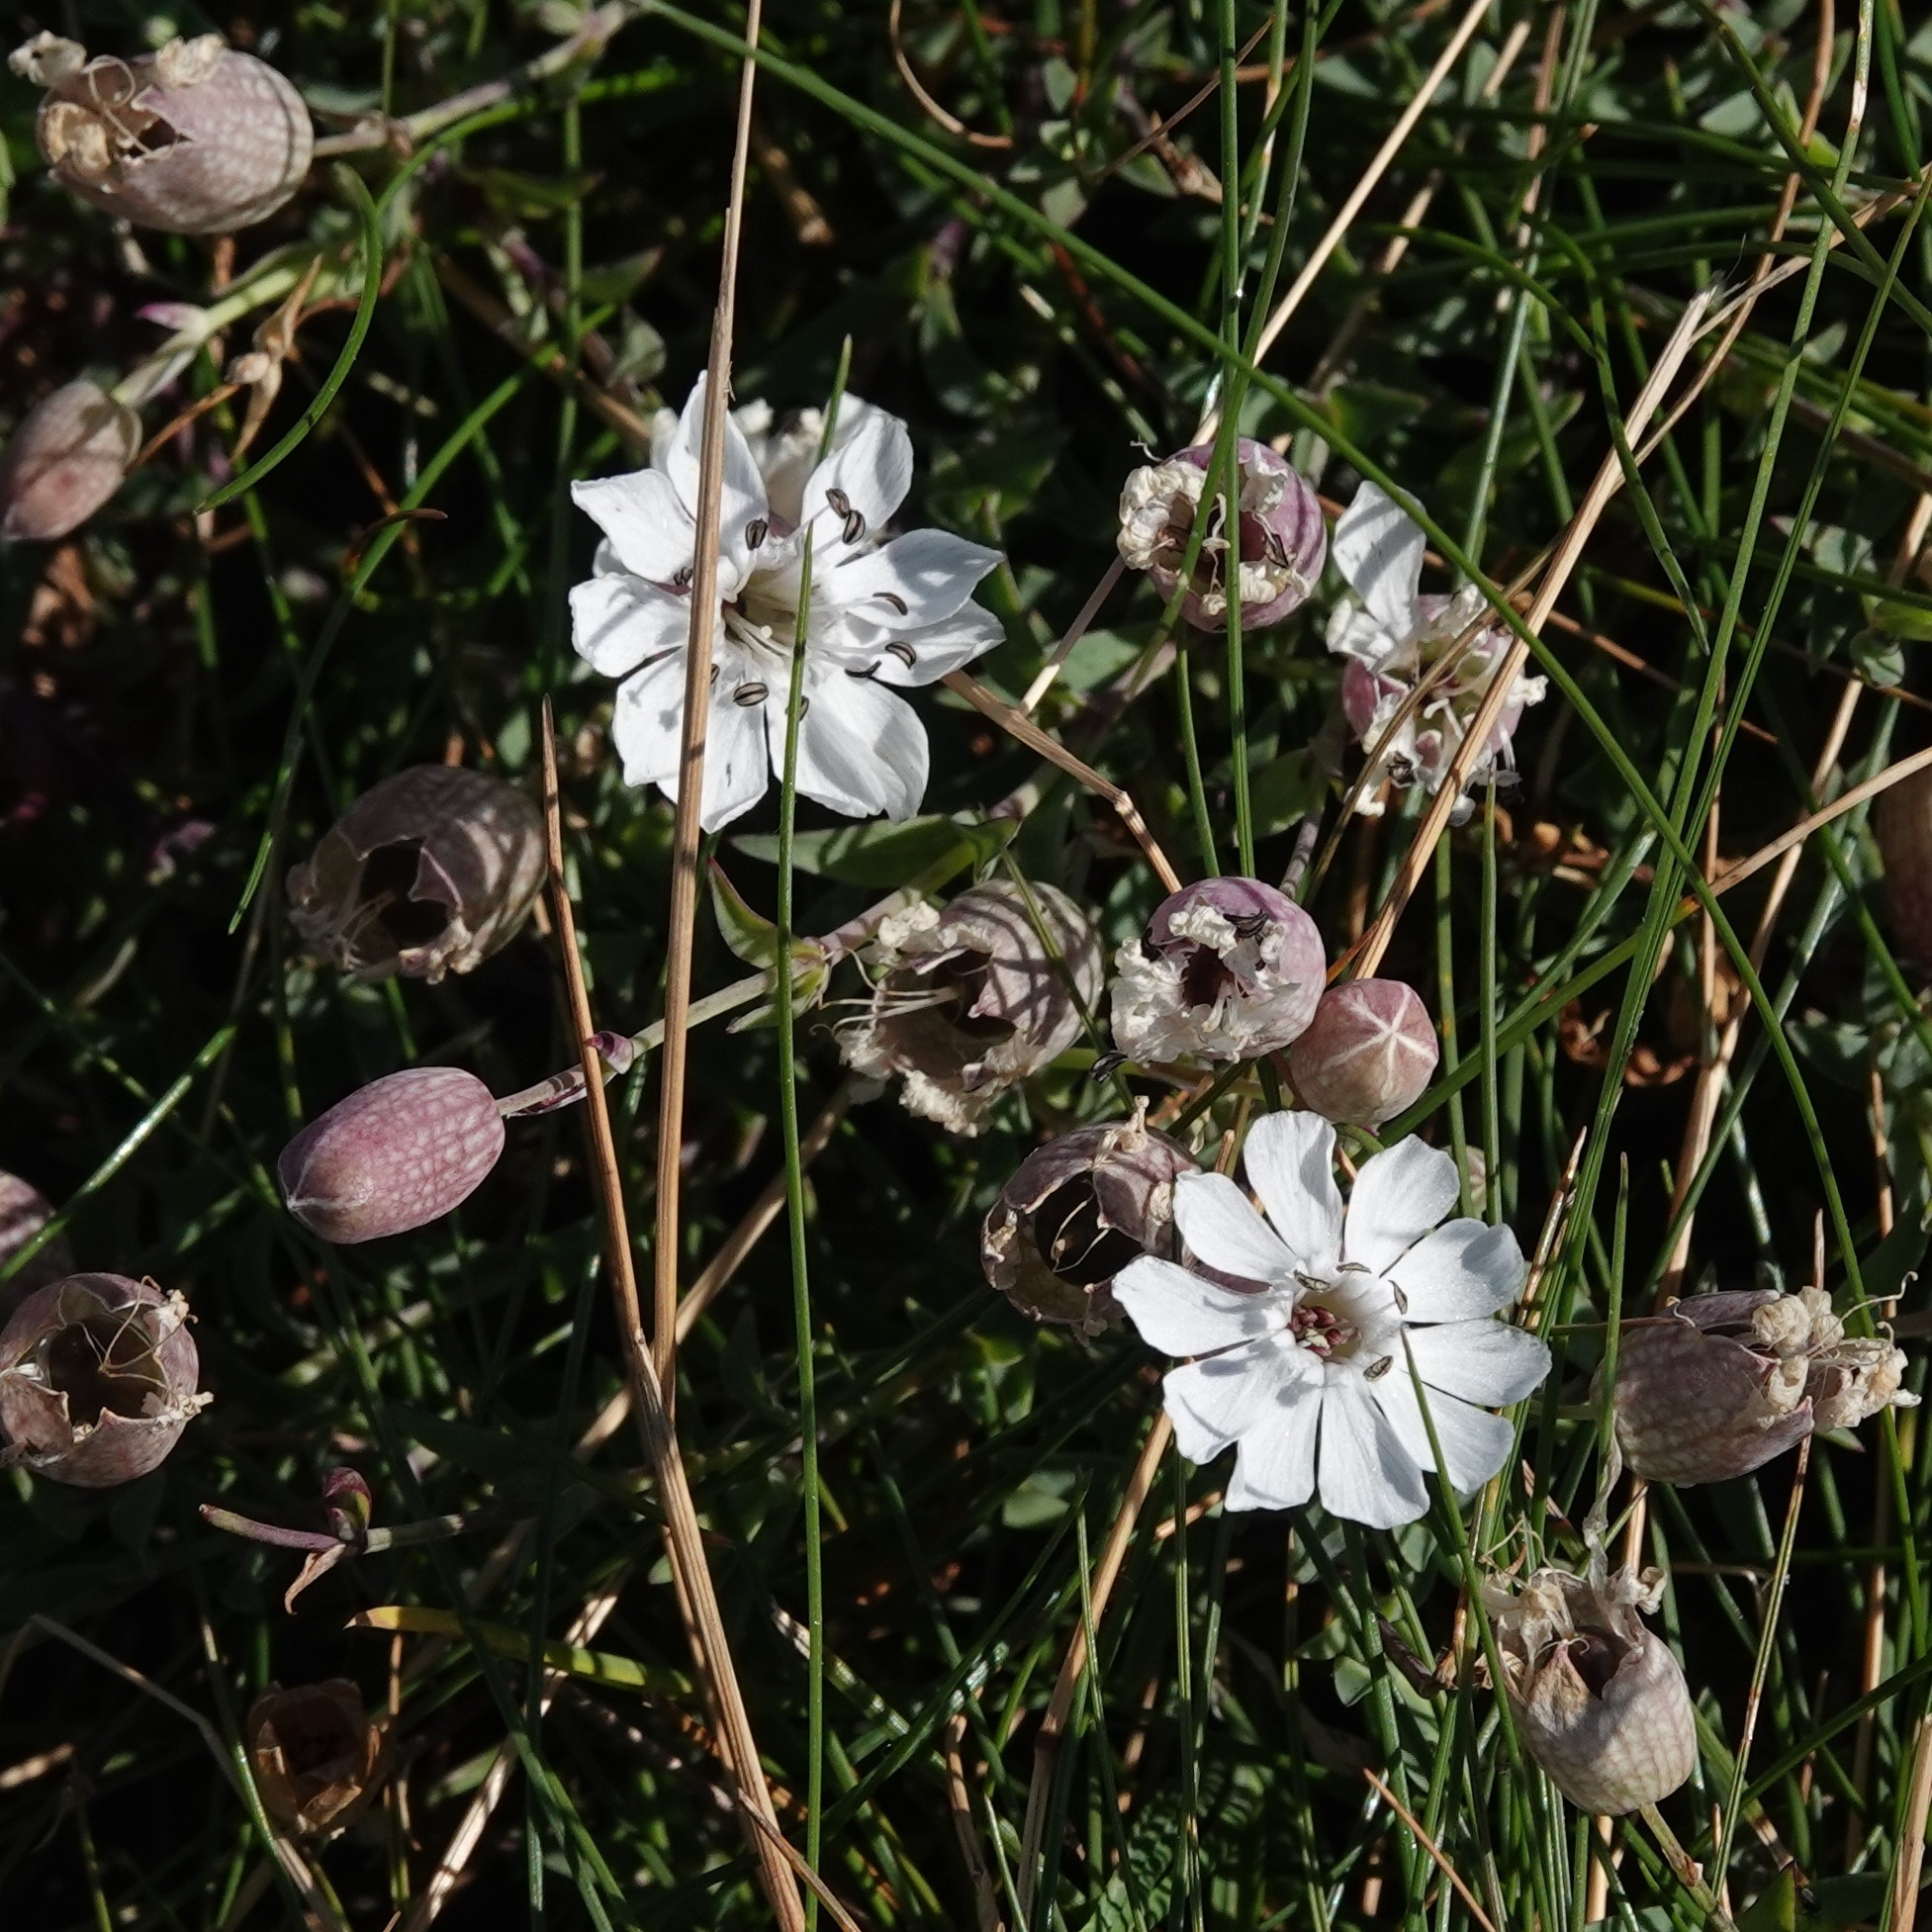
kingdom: Plantae
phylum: Tracheophyta
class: Magnoliopsida
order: Caryophyllales
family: Caryophyllaceae
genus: Silene
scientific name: Silene uniflora
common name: Sea campion
